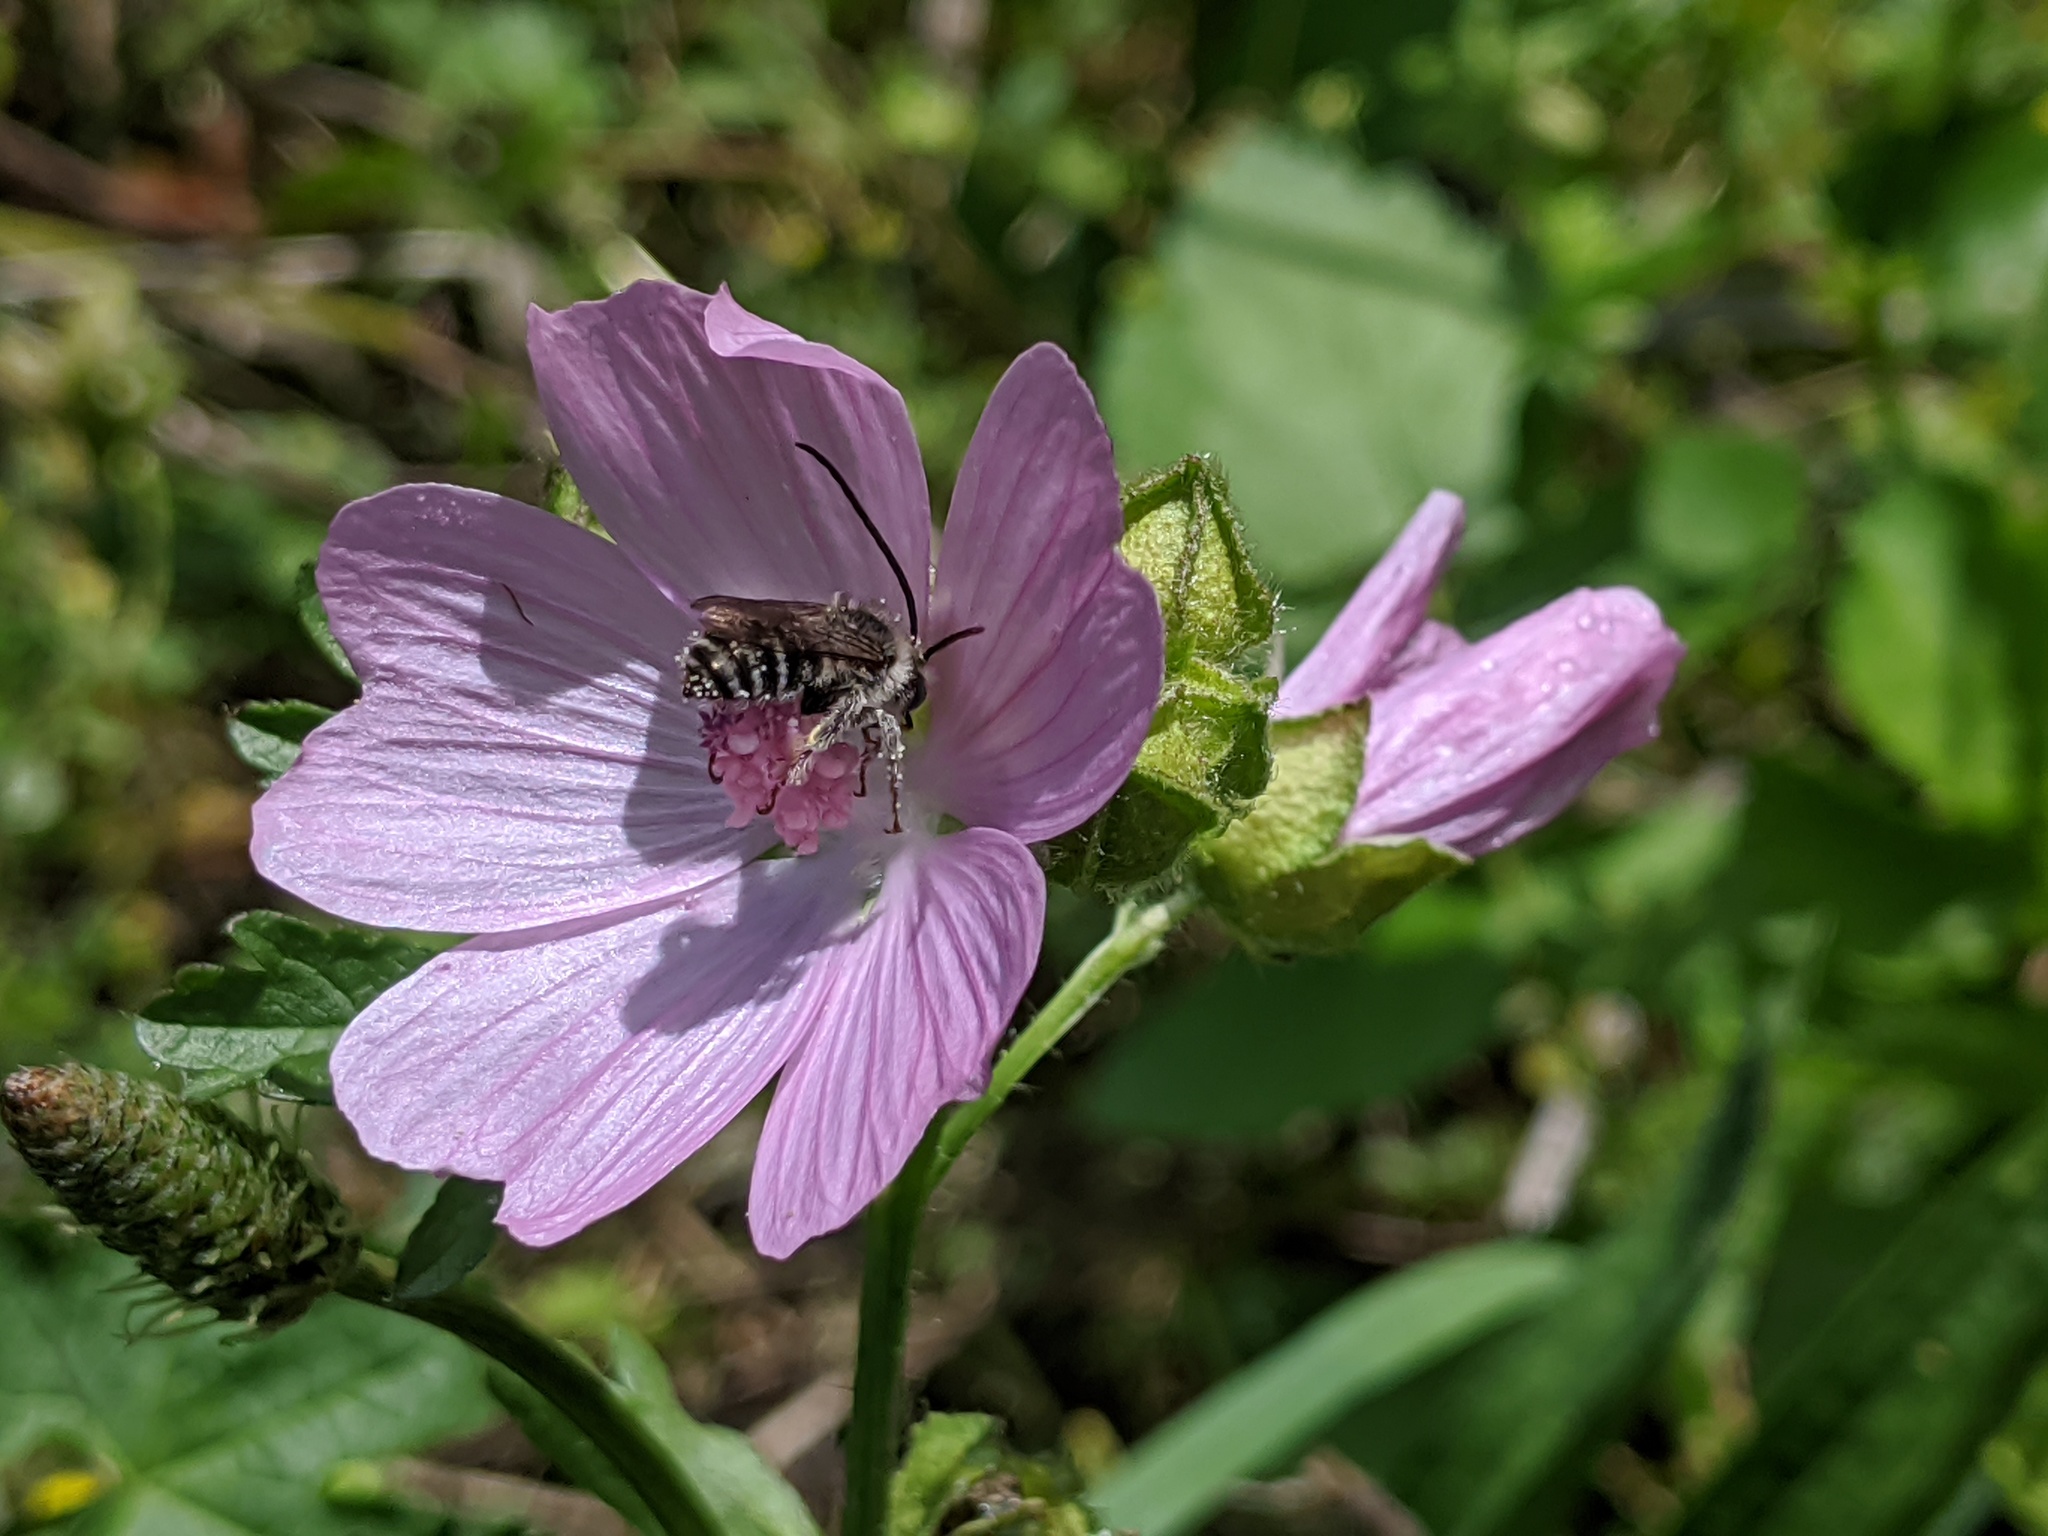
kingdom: Animalia
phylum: Arthropoda
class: Insecta
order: Hymenoptera
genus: Eumelissodes
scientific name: Eumelissodes
